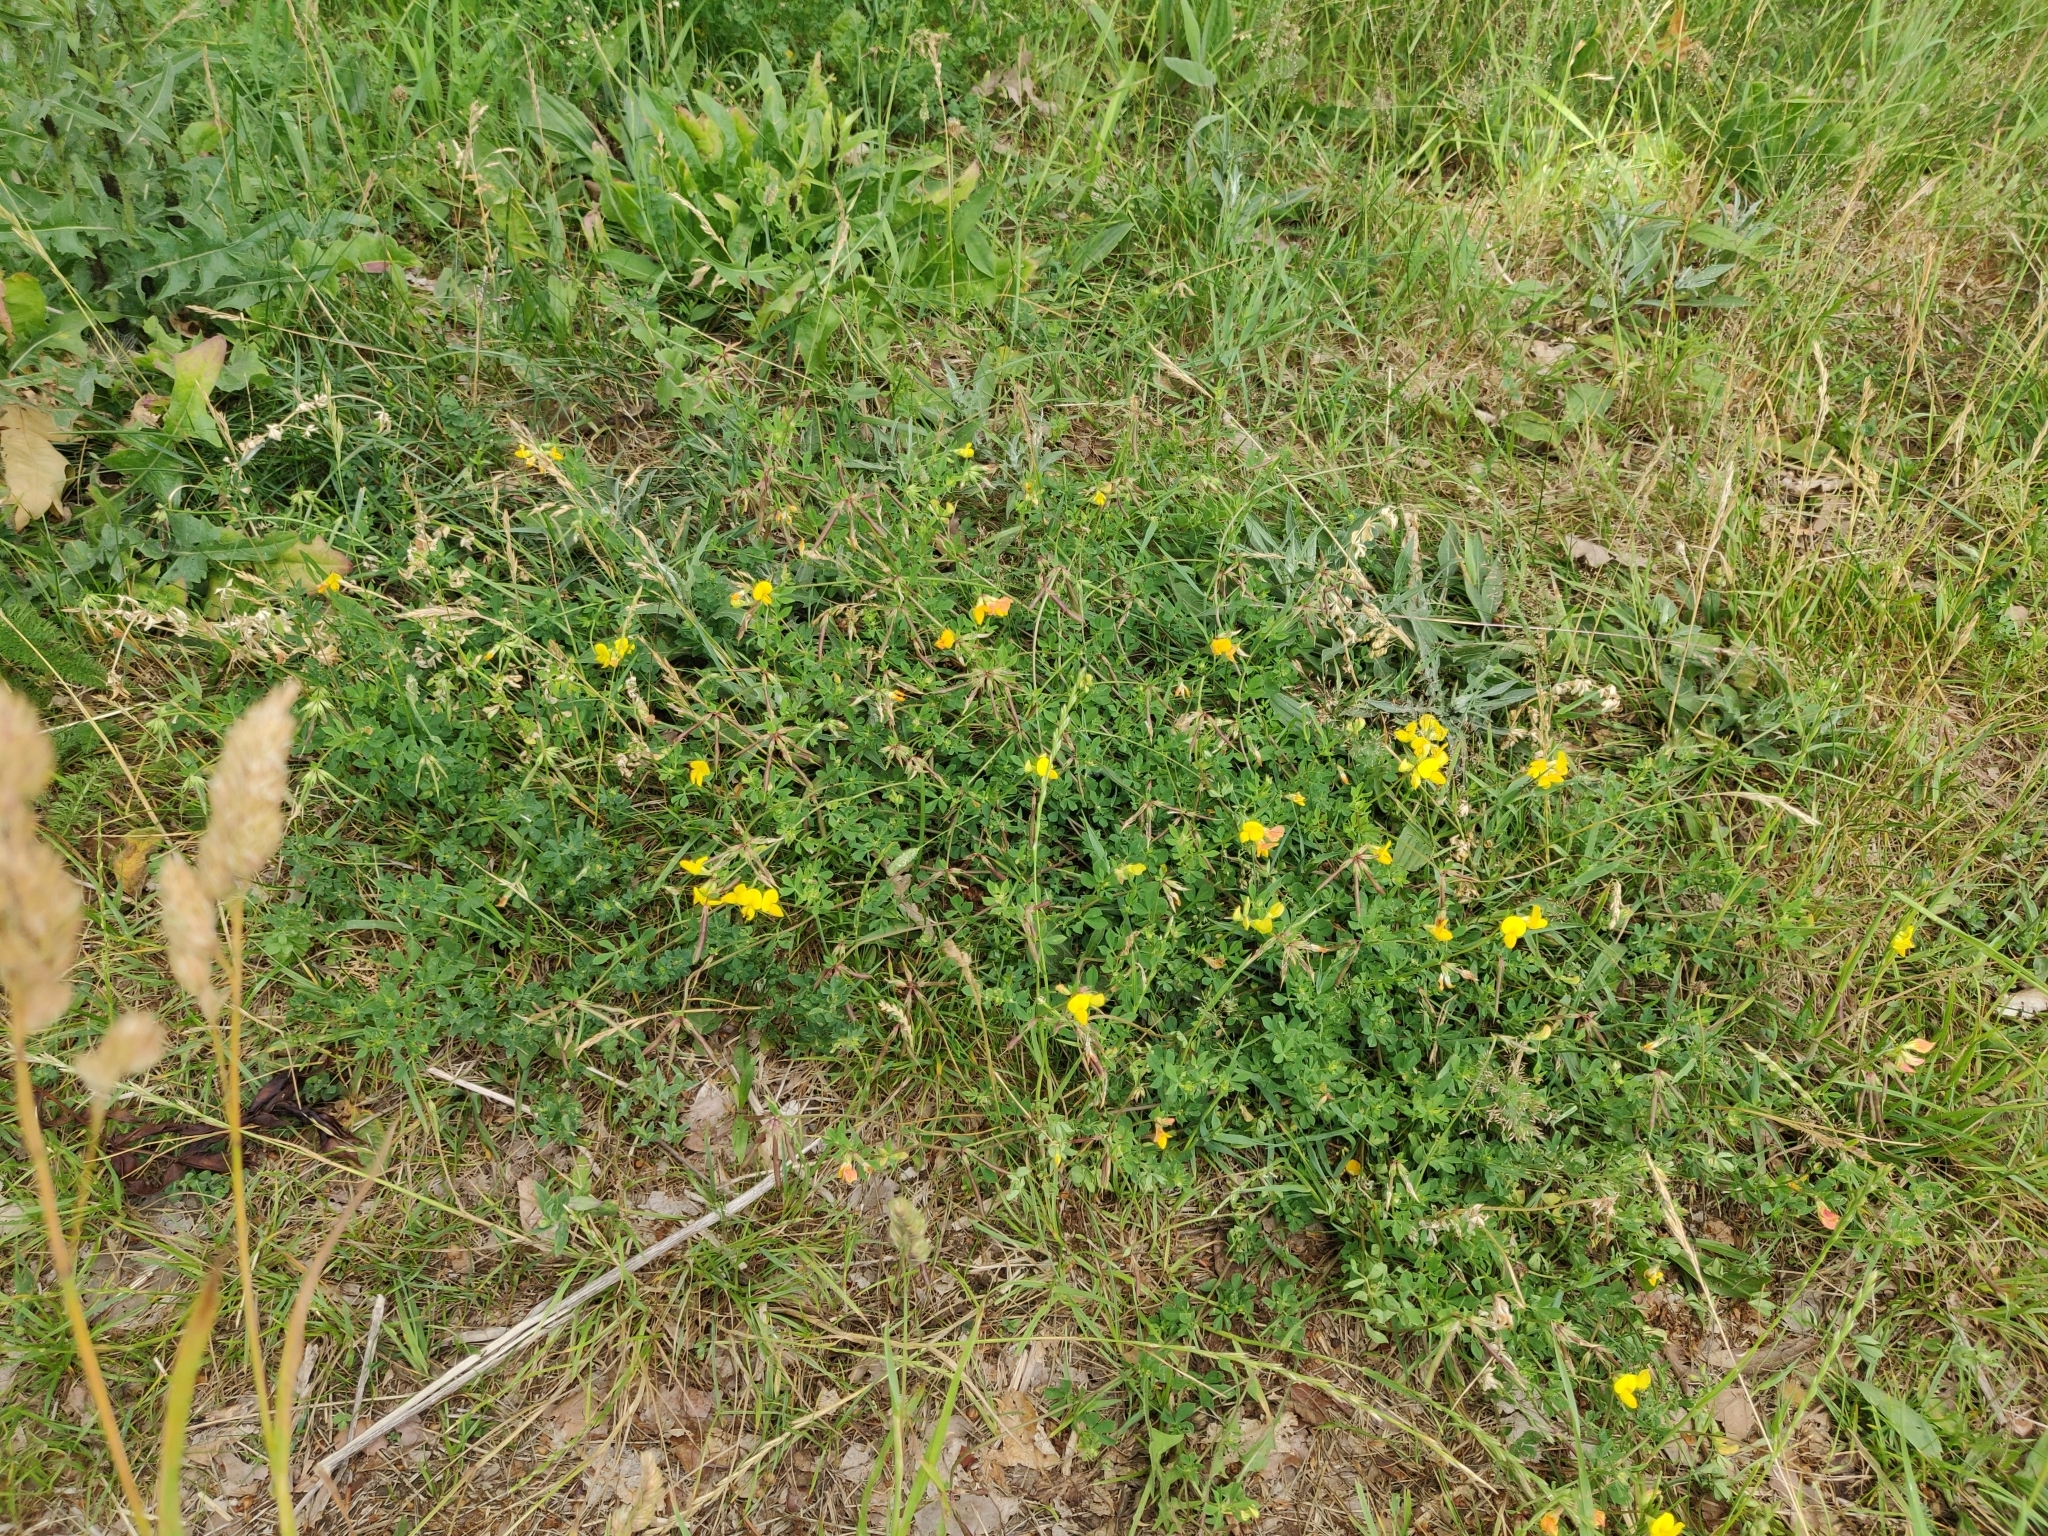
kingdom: Plantae
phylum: Tracheophyta
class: Magnoliopsida
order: Fabales
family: Fabaceae
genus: Lotus
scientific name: Lotus corniculatus
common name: Common bird's-foot-trefoil
